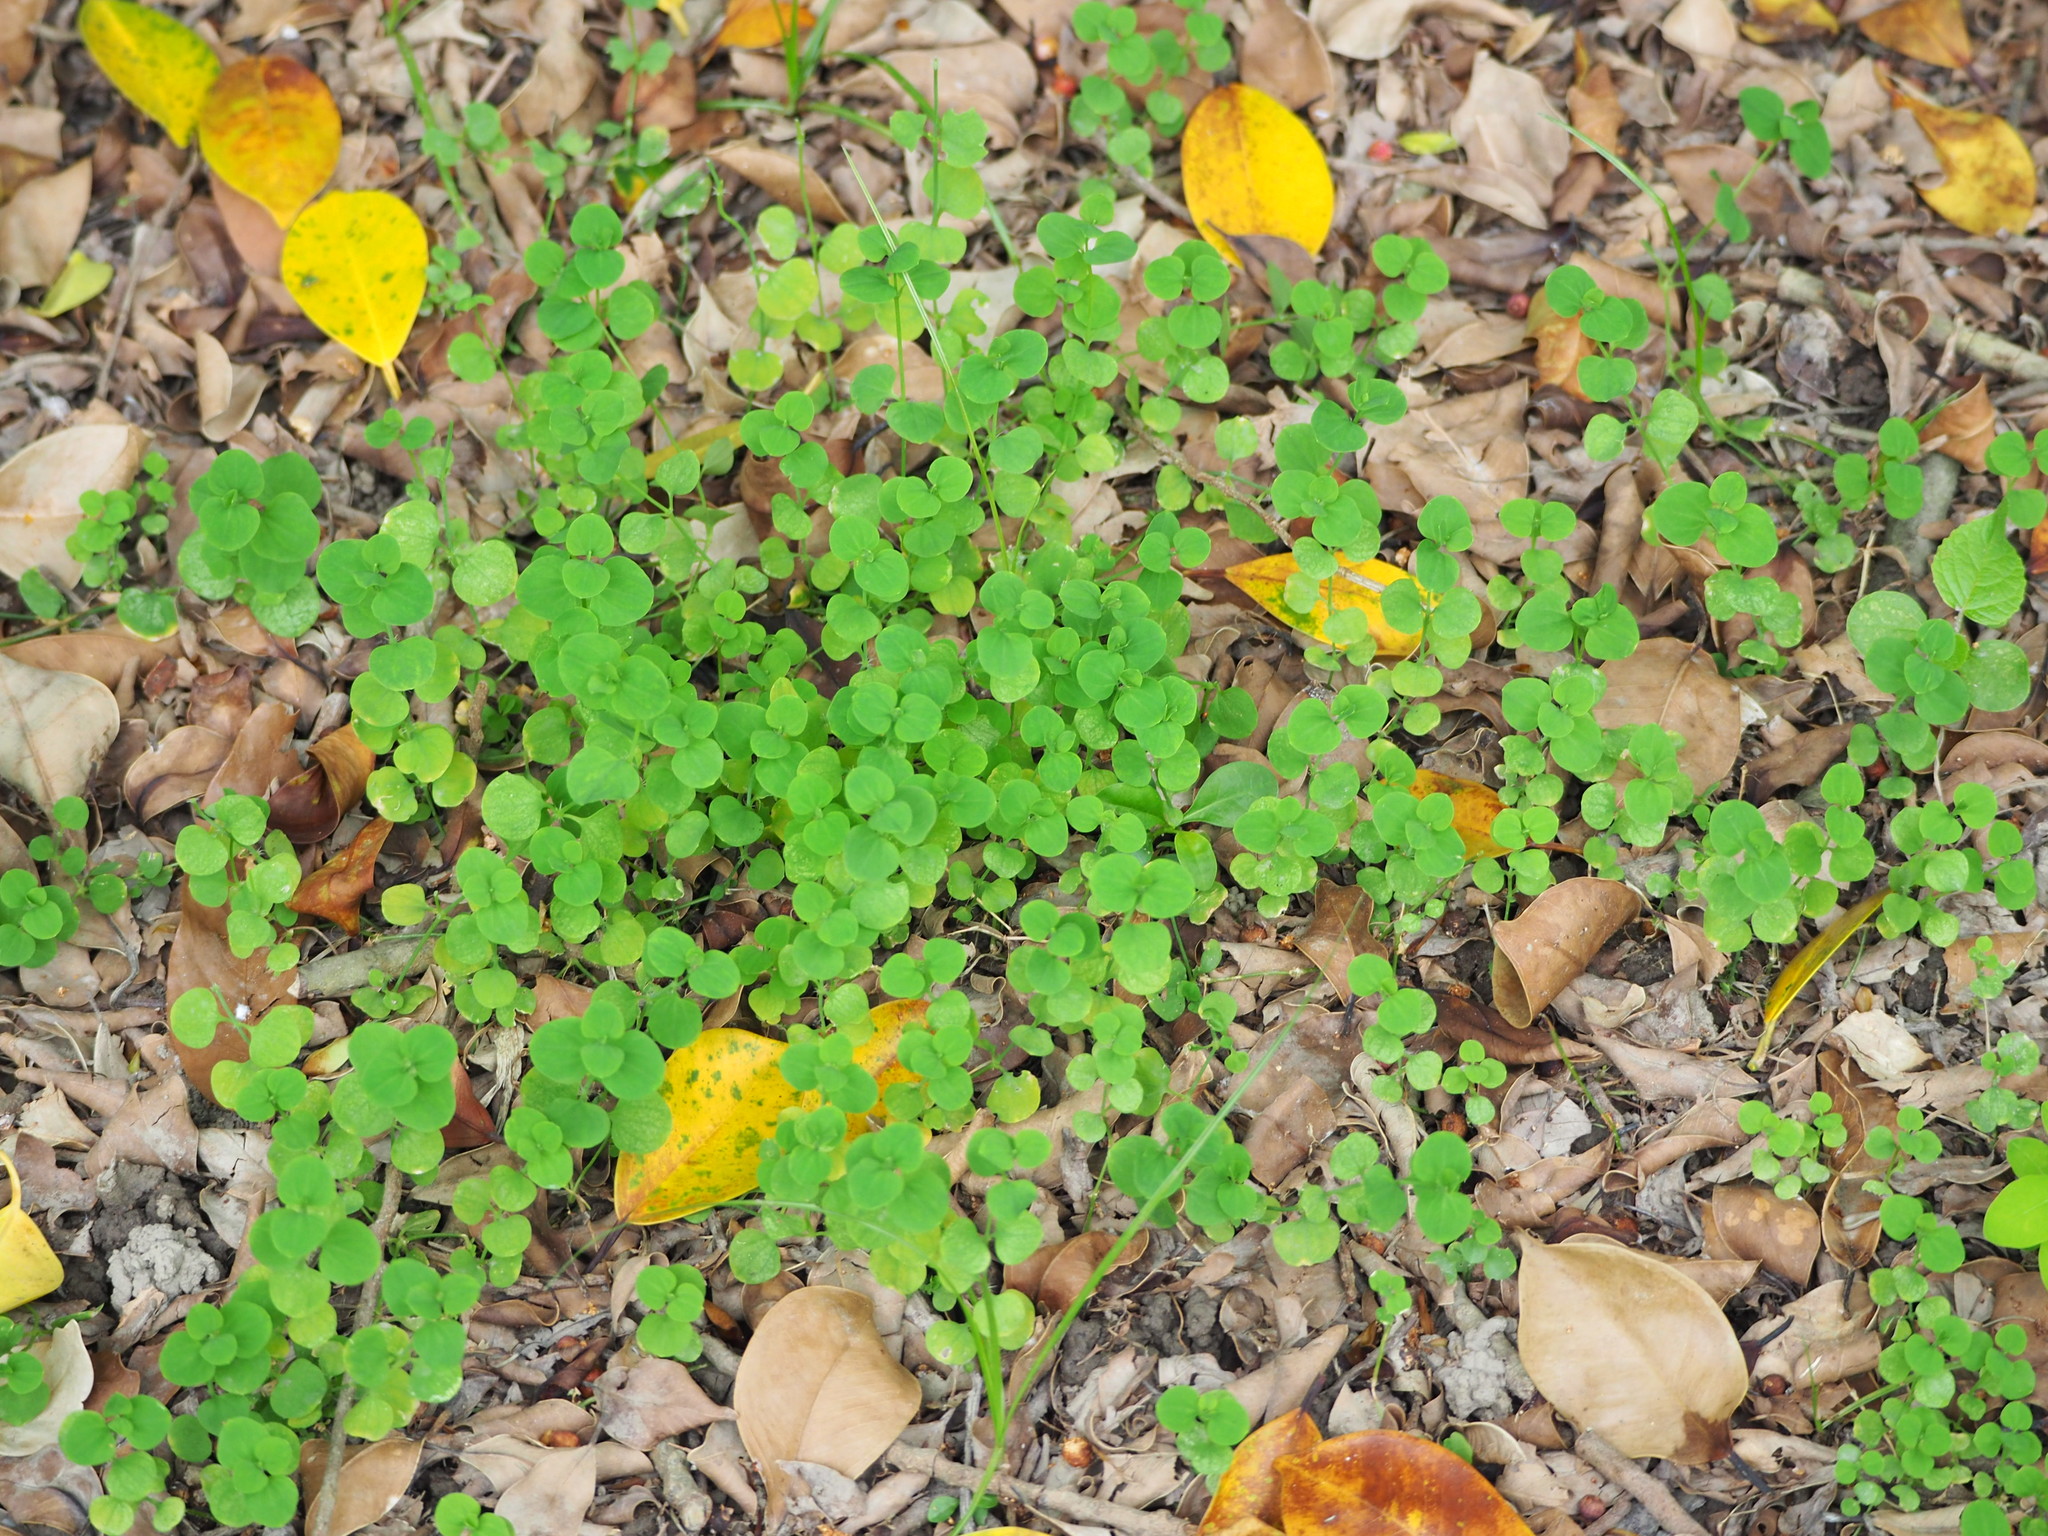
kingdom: Plantae
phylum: Tracheophyta
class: Magnoliopsida
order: Caryophyllales
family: Caryophyllaceae
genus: Drymaria
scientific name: Drymaria cordata
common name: Whitesnow
